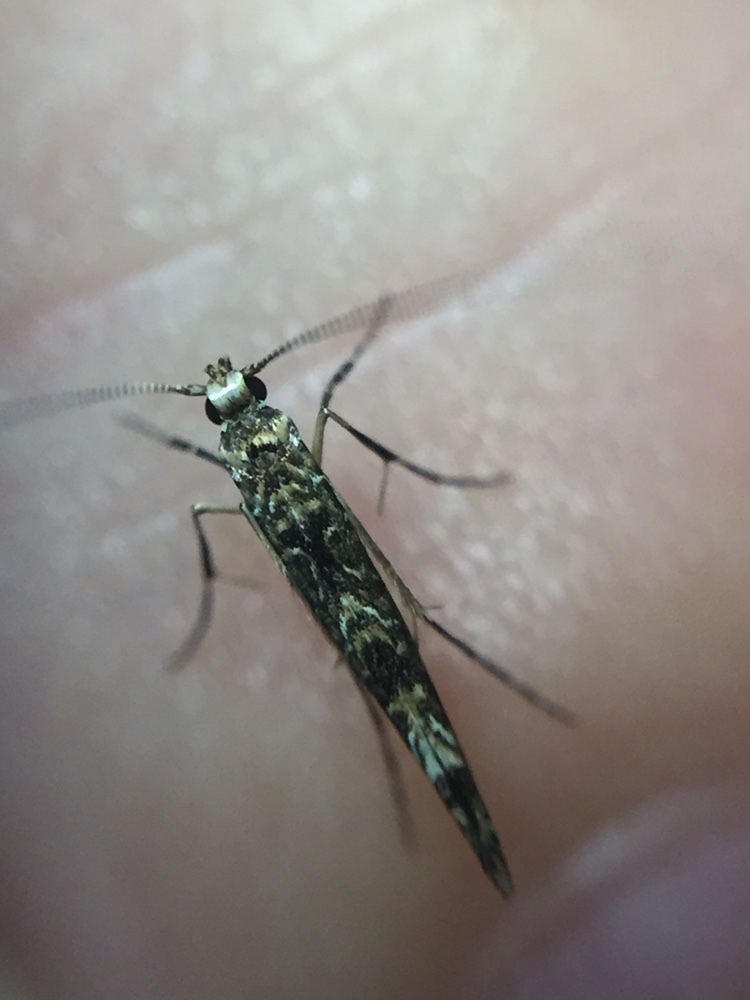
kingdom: Animalia
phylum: Arthropoda
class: Insecta
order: Lepidoptera
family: Gracillariidae
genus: Conopomorpha
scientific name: Conopomorpha cyanospila
